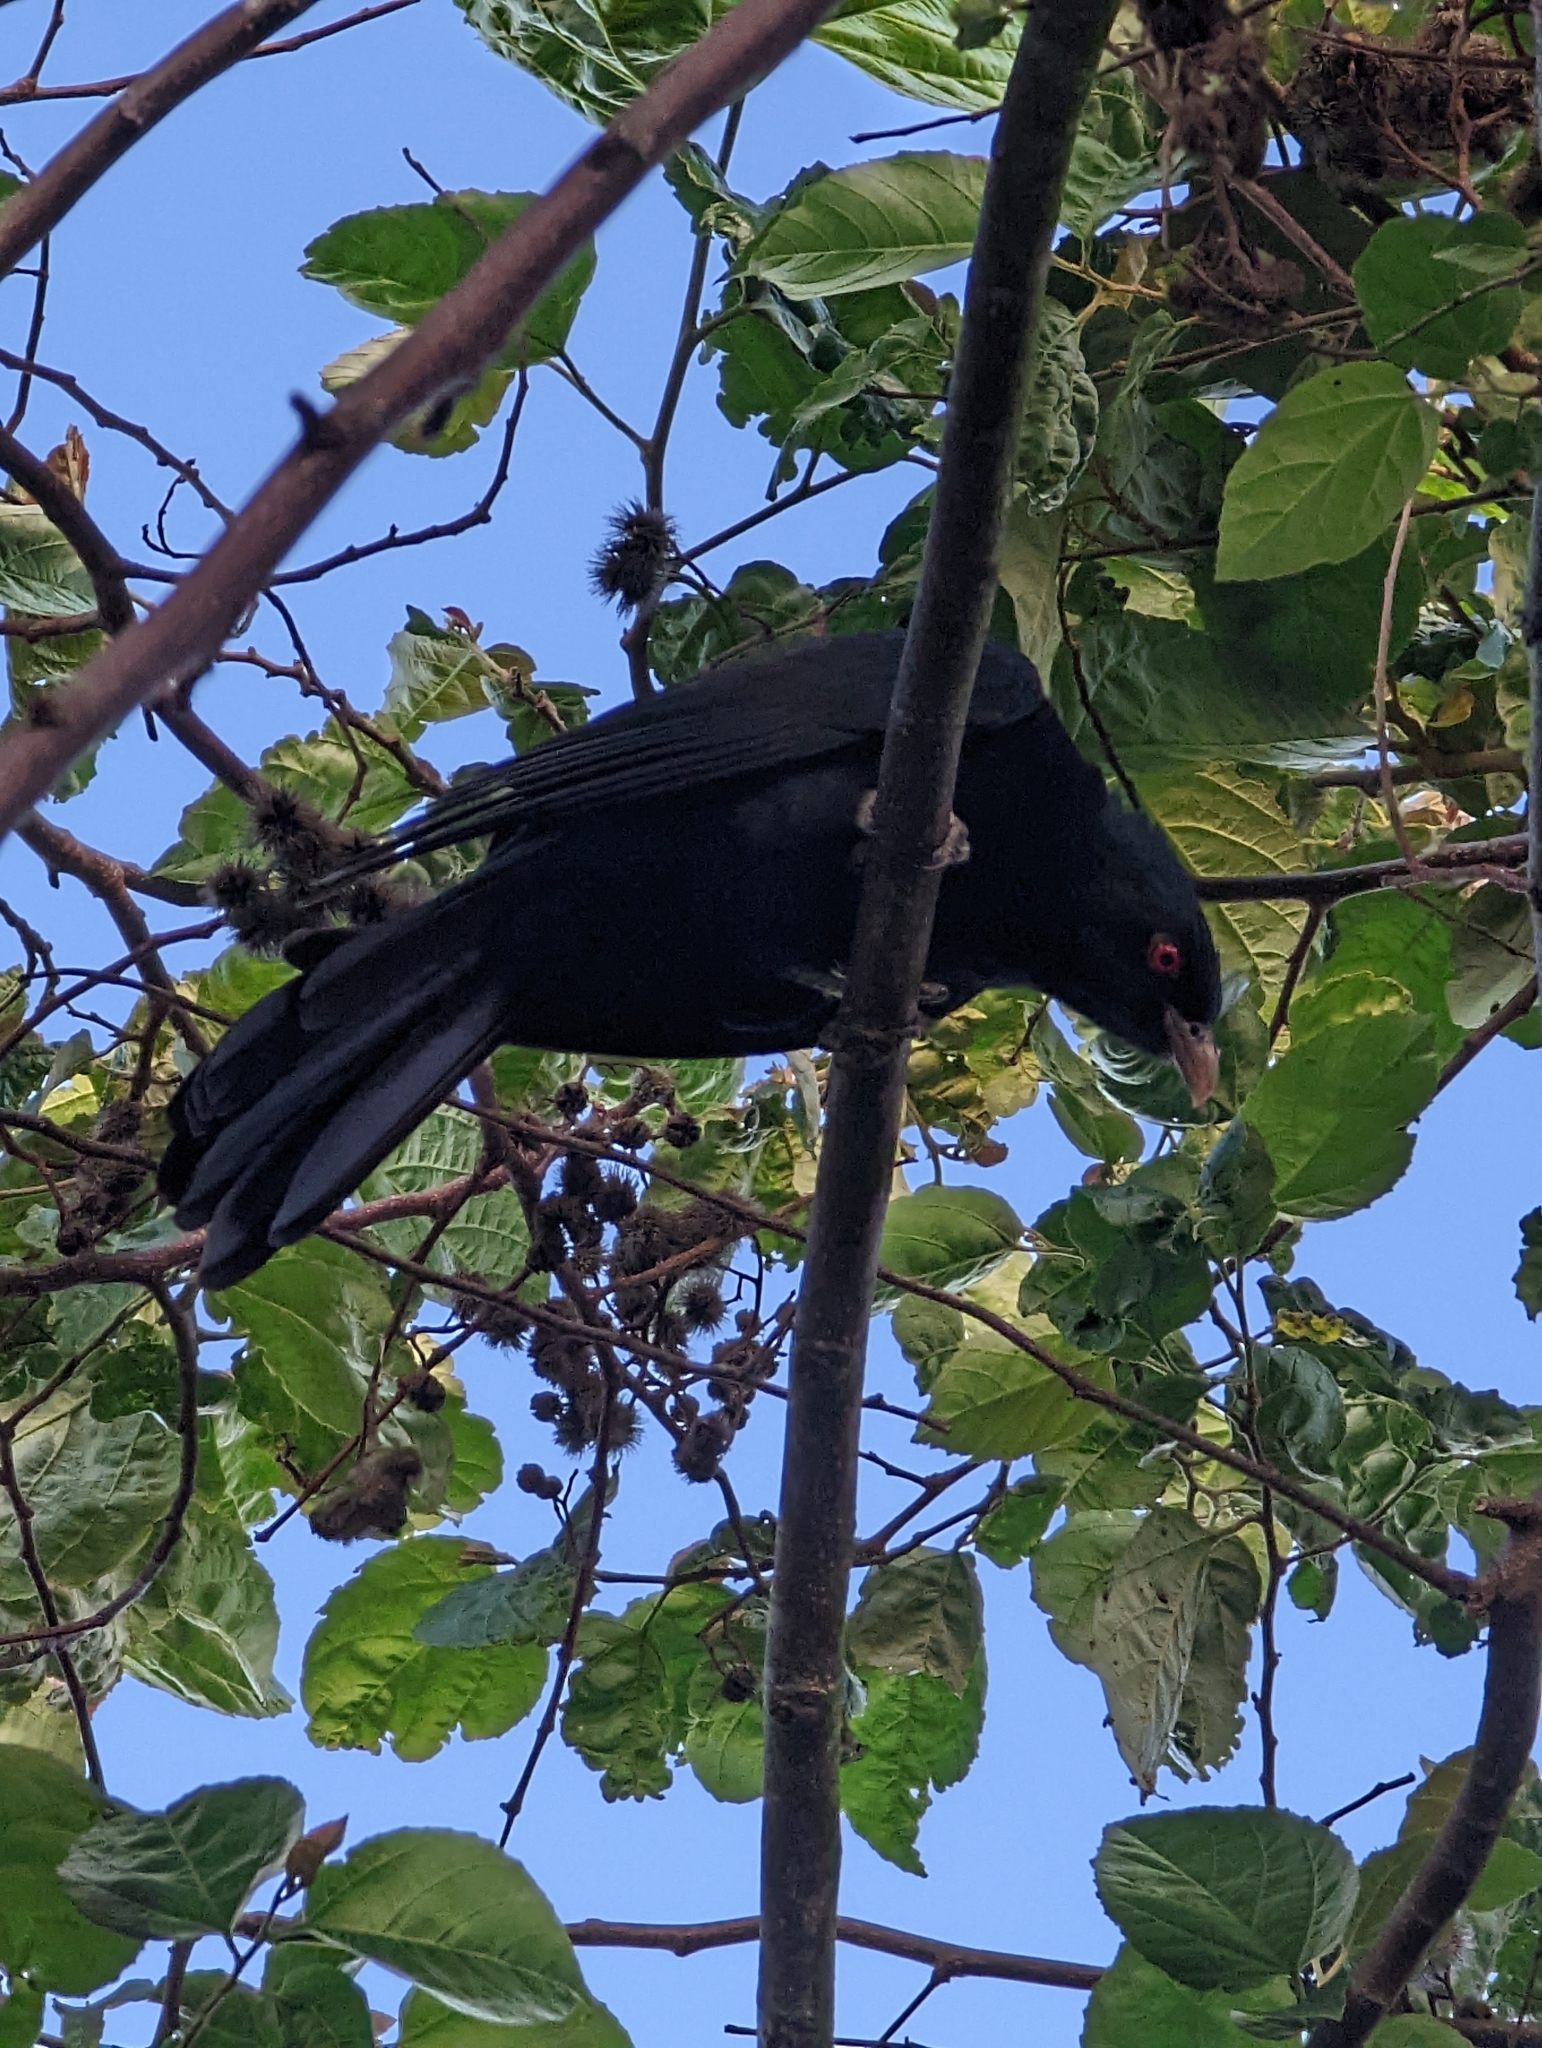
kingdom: Animalia
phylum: Chordata
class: Aves
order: Cuculiformes
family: Cuculidae
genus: Eudynamys
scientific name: Eudynamys orientalis
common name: Pacific koel
